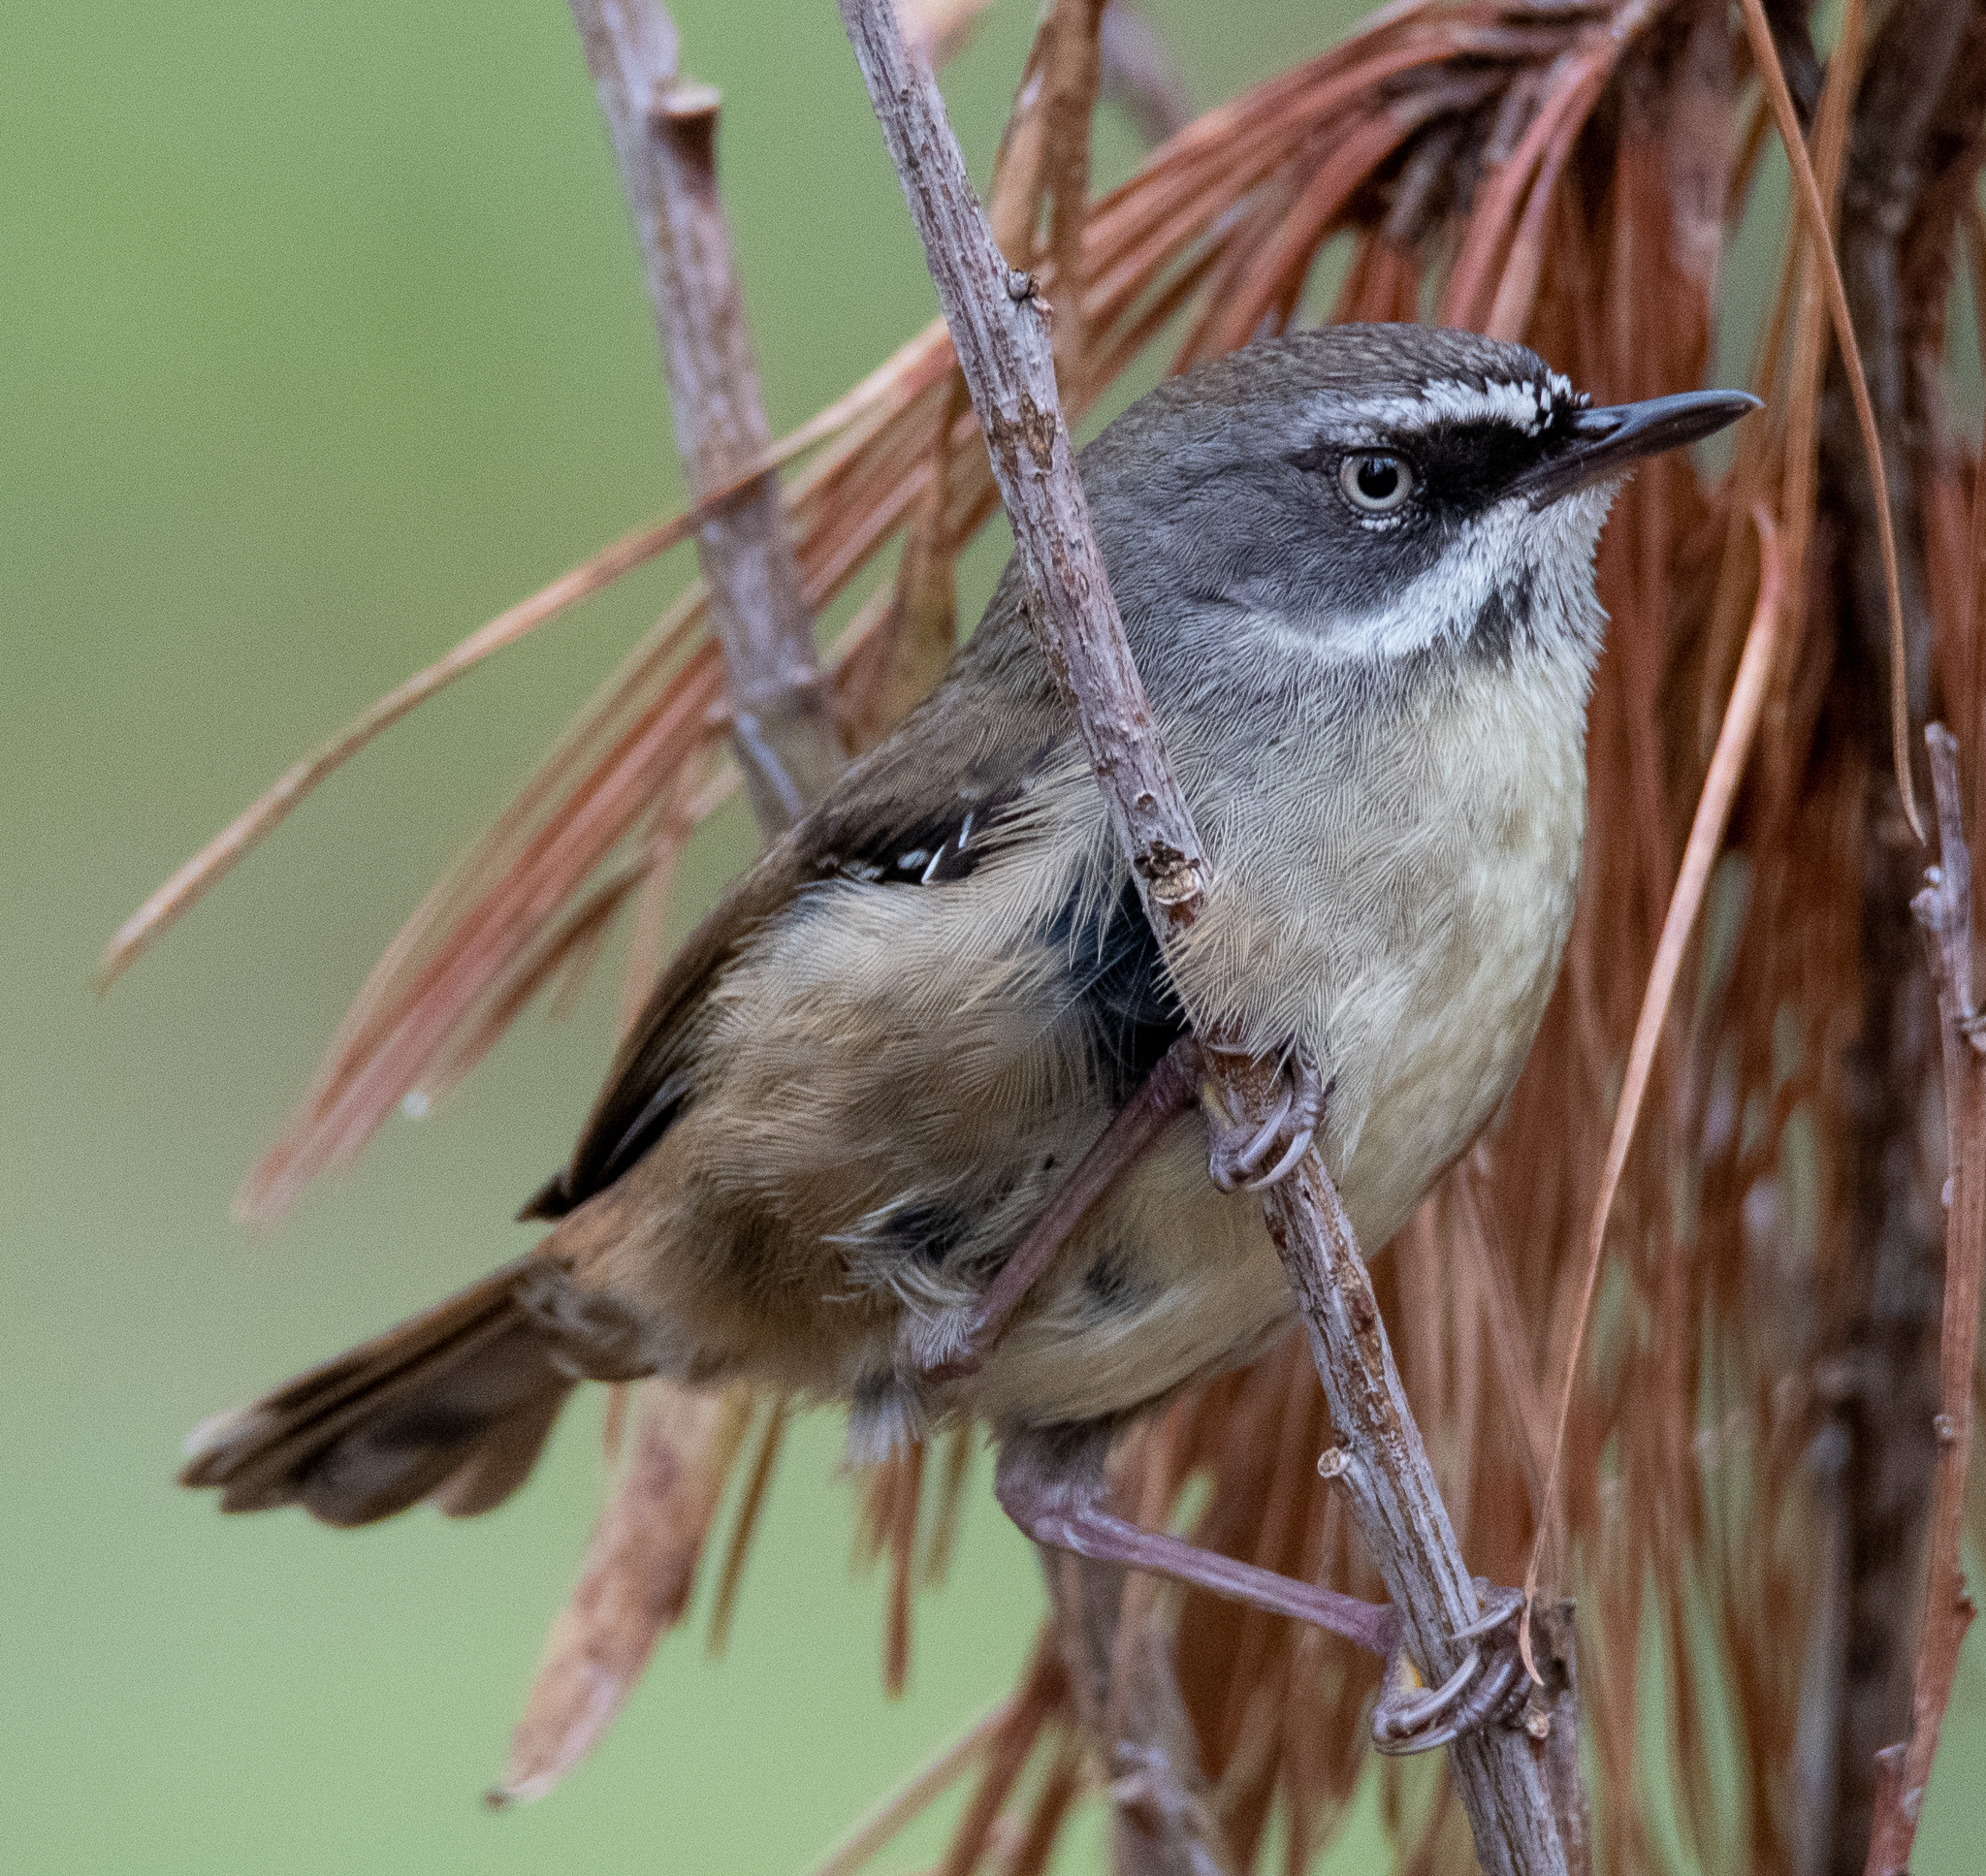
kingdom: Animalia
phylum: Chordata
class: Aves
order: Passeriformes
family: Acanthizidae
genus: Sericornis
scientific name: Sericornis frontalis
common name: White-browed scrubwren
